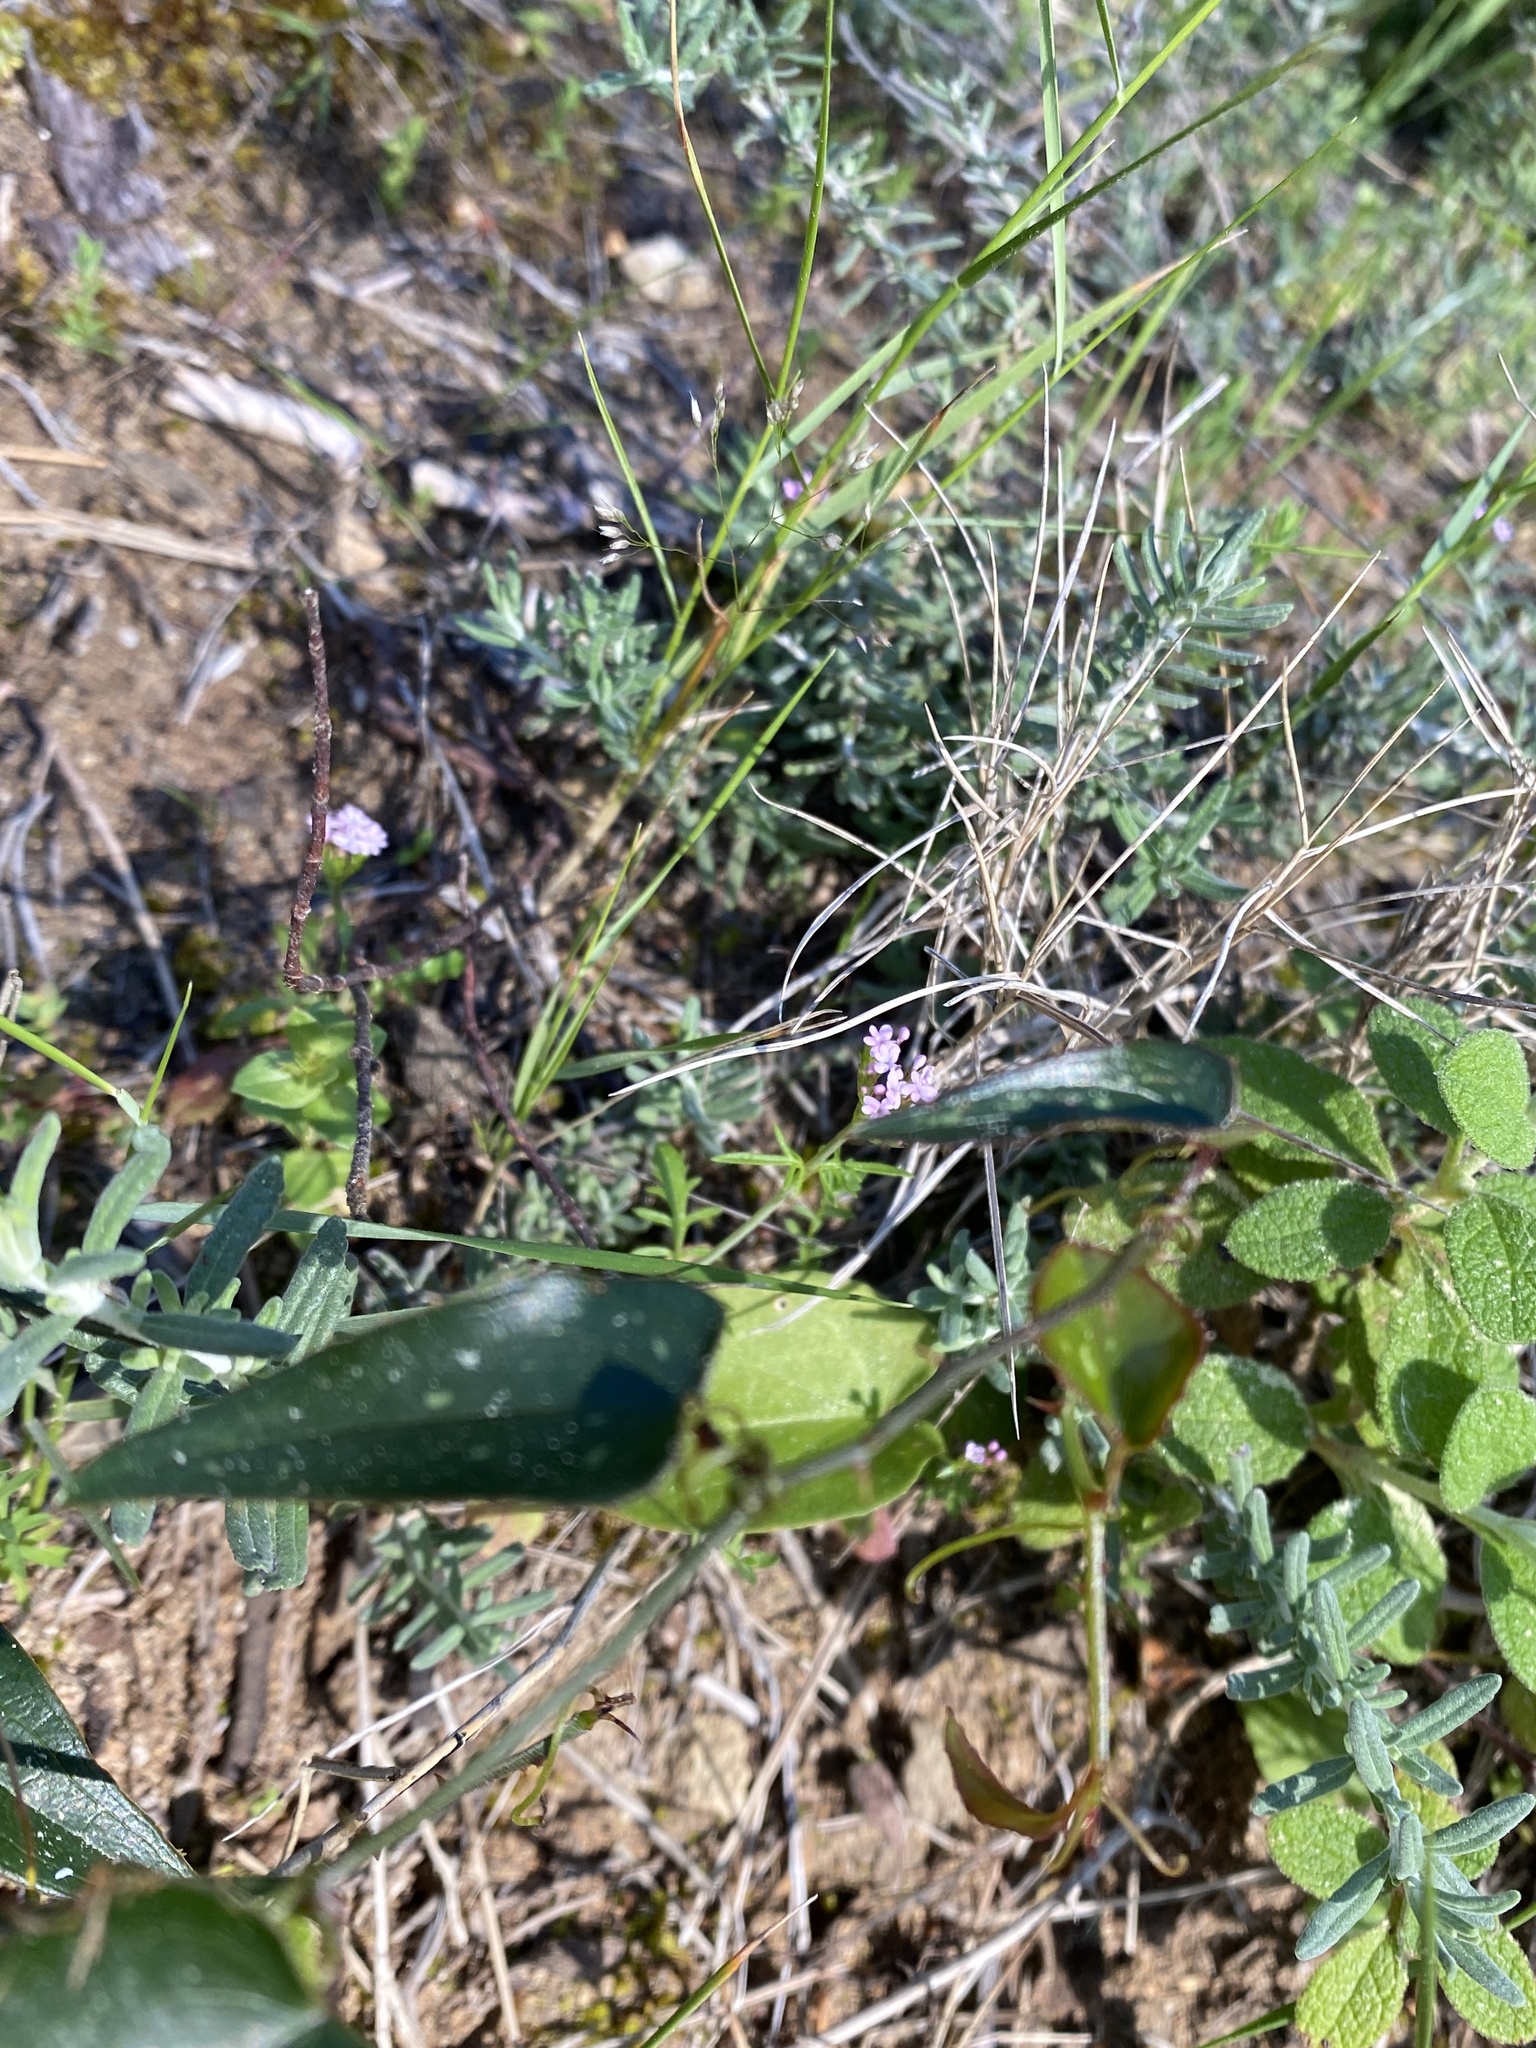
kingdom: Plantae
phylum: Tracheophyta
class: Liliopsida
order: Liliales
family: Smilacaceae
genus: Smilax
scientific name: Smilax aspera
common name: Common smilax
